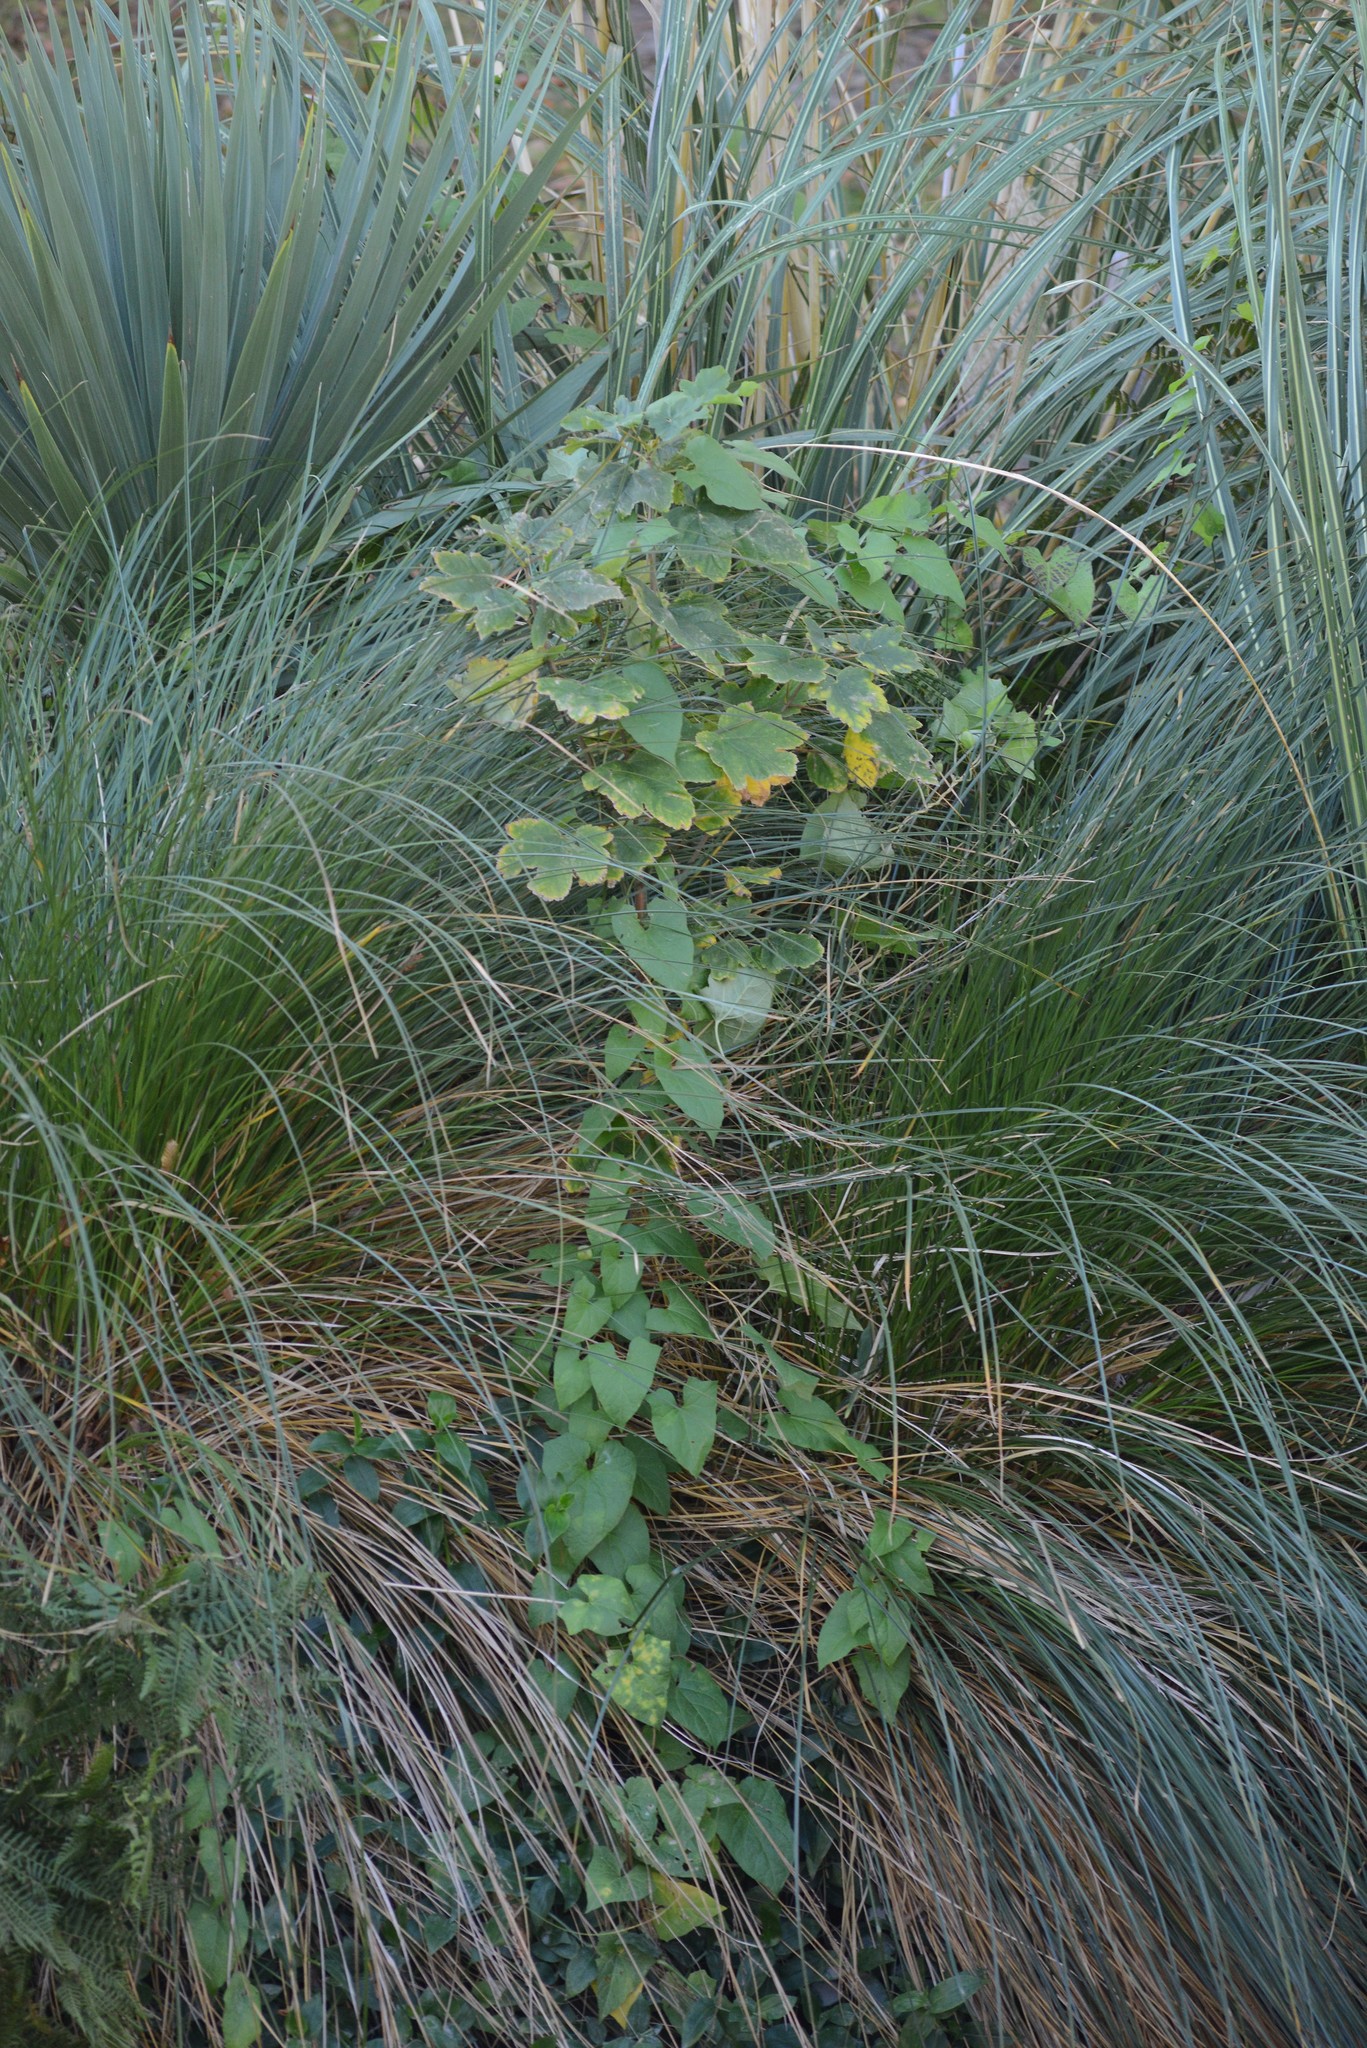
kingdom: Plantae
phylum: Tracheophyta
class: Magnoliopsida
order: Sapindales
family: Sapindaceae
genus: Acer
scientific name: Acer pseudoplatanus
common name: Sycamore
